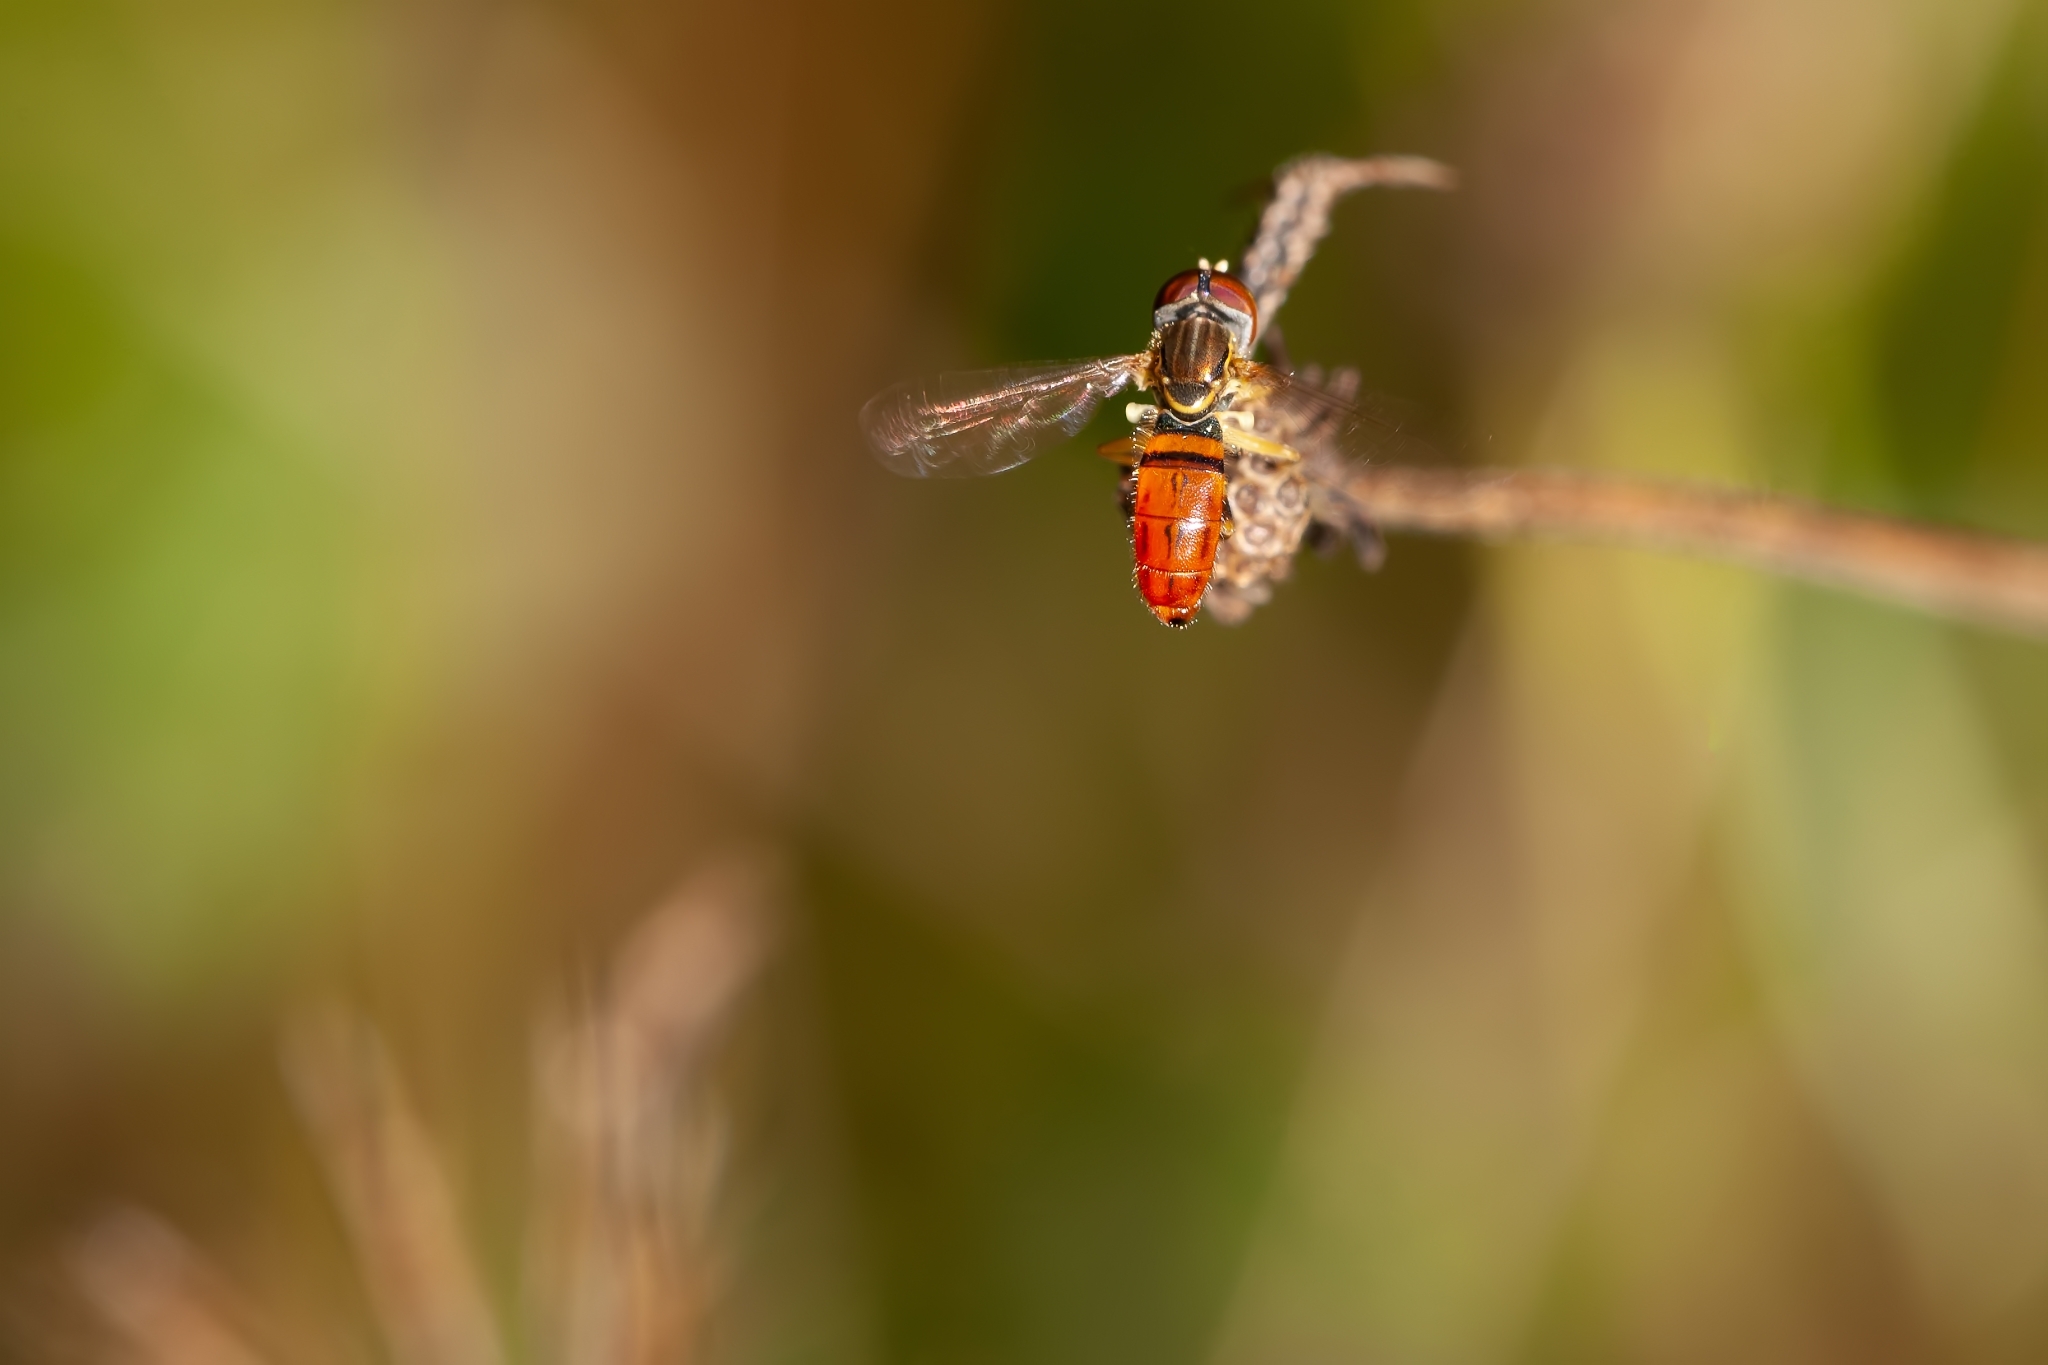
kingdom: Animalia
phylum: Arthropoda
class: Insecta
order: Diptera
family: Syrphidae
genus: Toxomerus
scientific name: Toxomerus boscii
